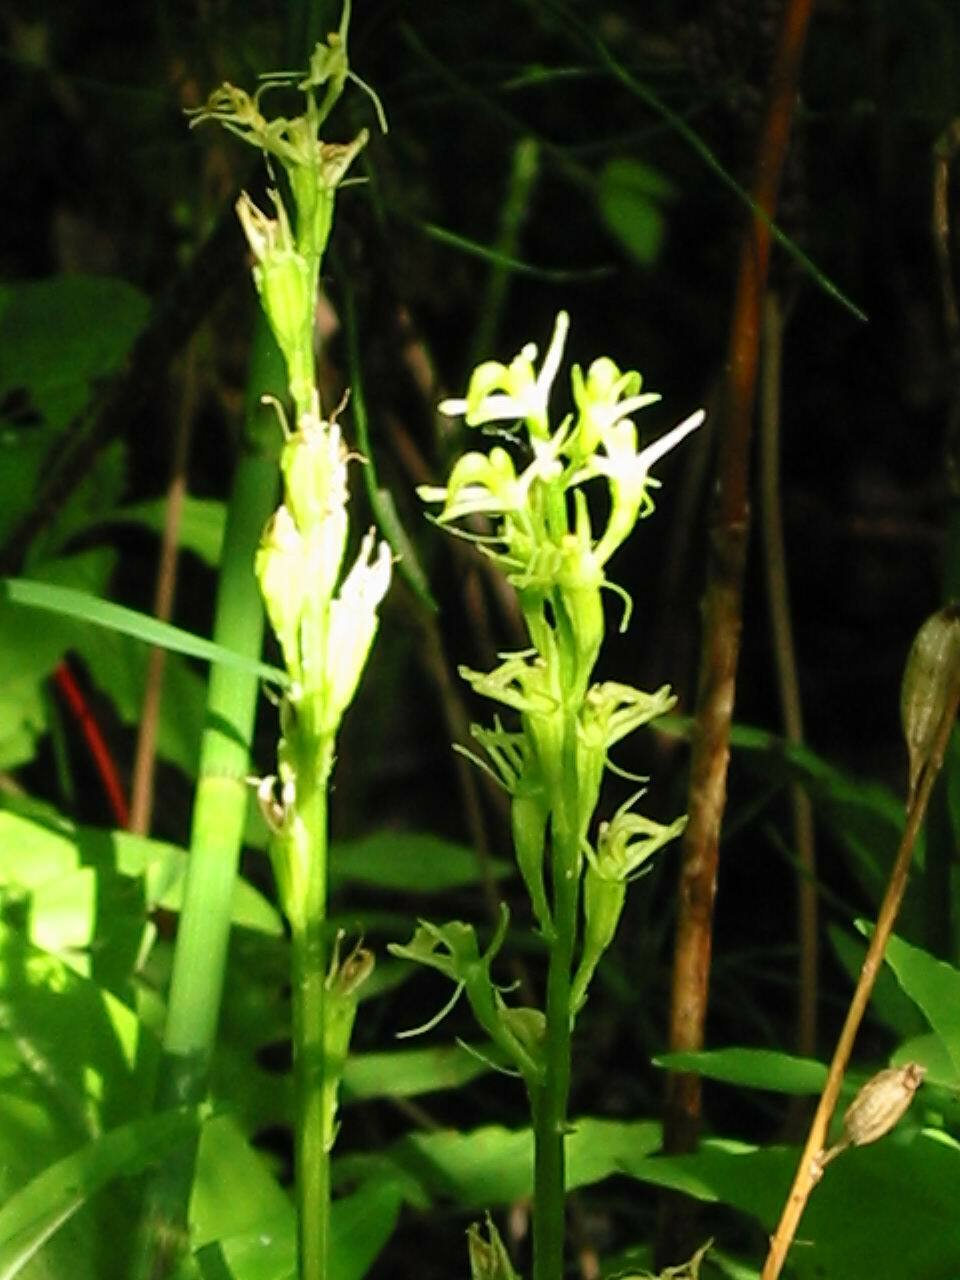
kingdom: Animalia
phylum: Arthropoda
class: Insecta
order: Coleoptera
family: Curculionidae
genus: Liparis
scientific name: Liparis loeselii
